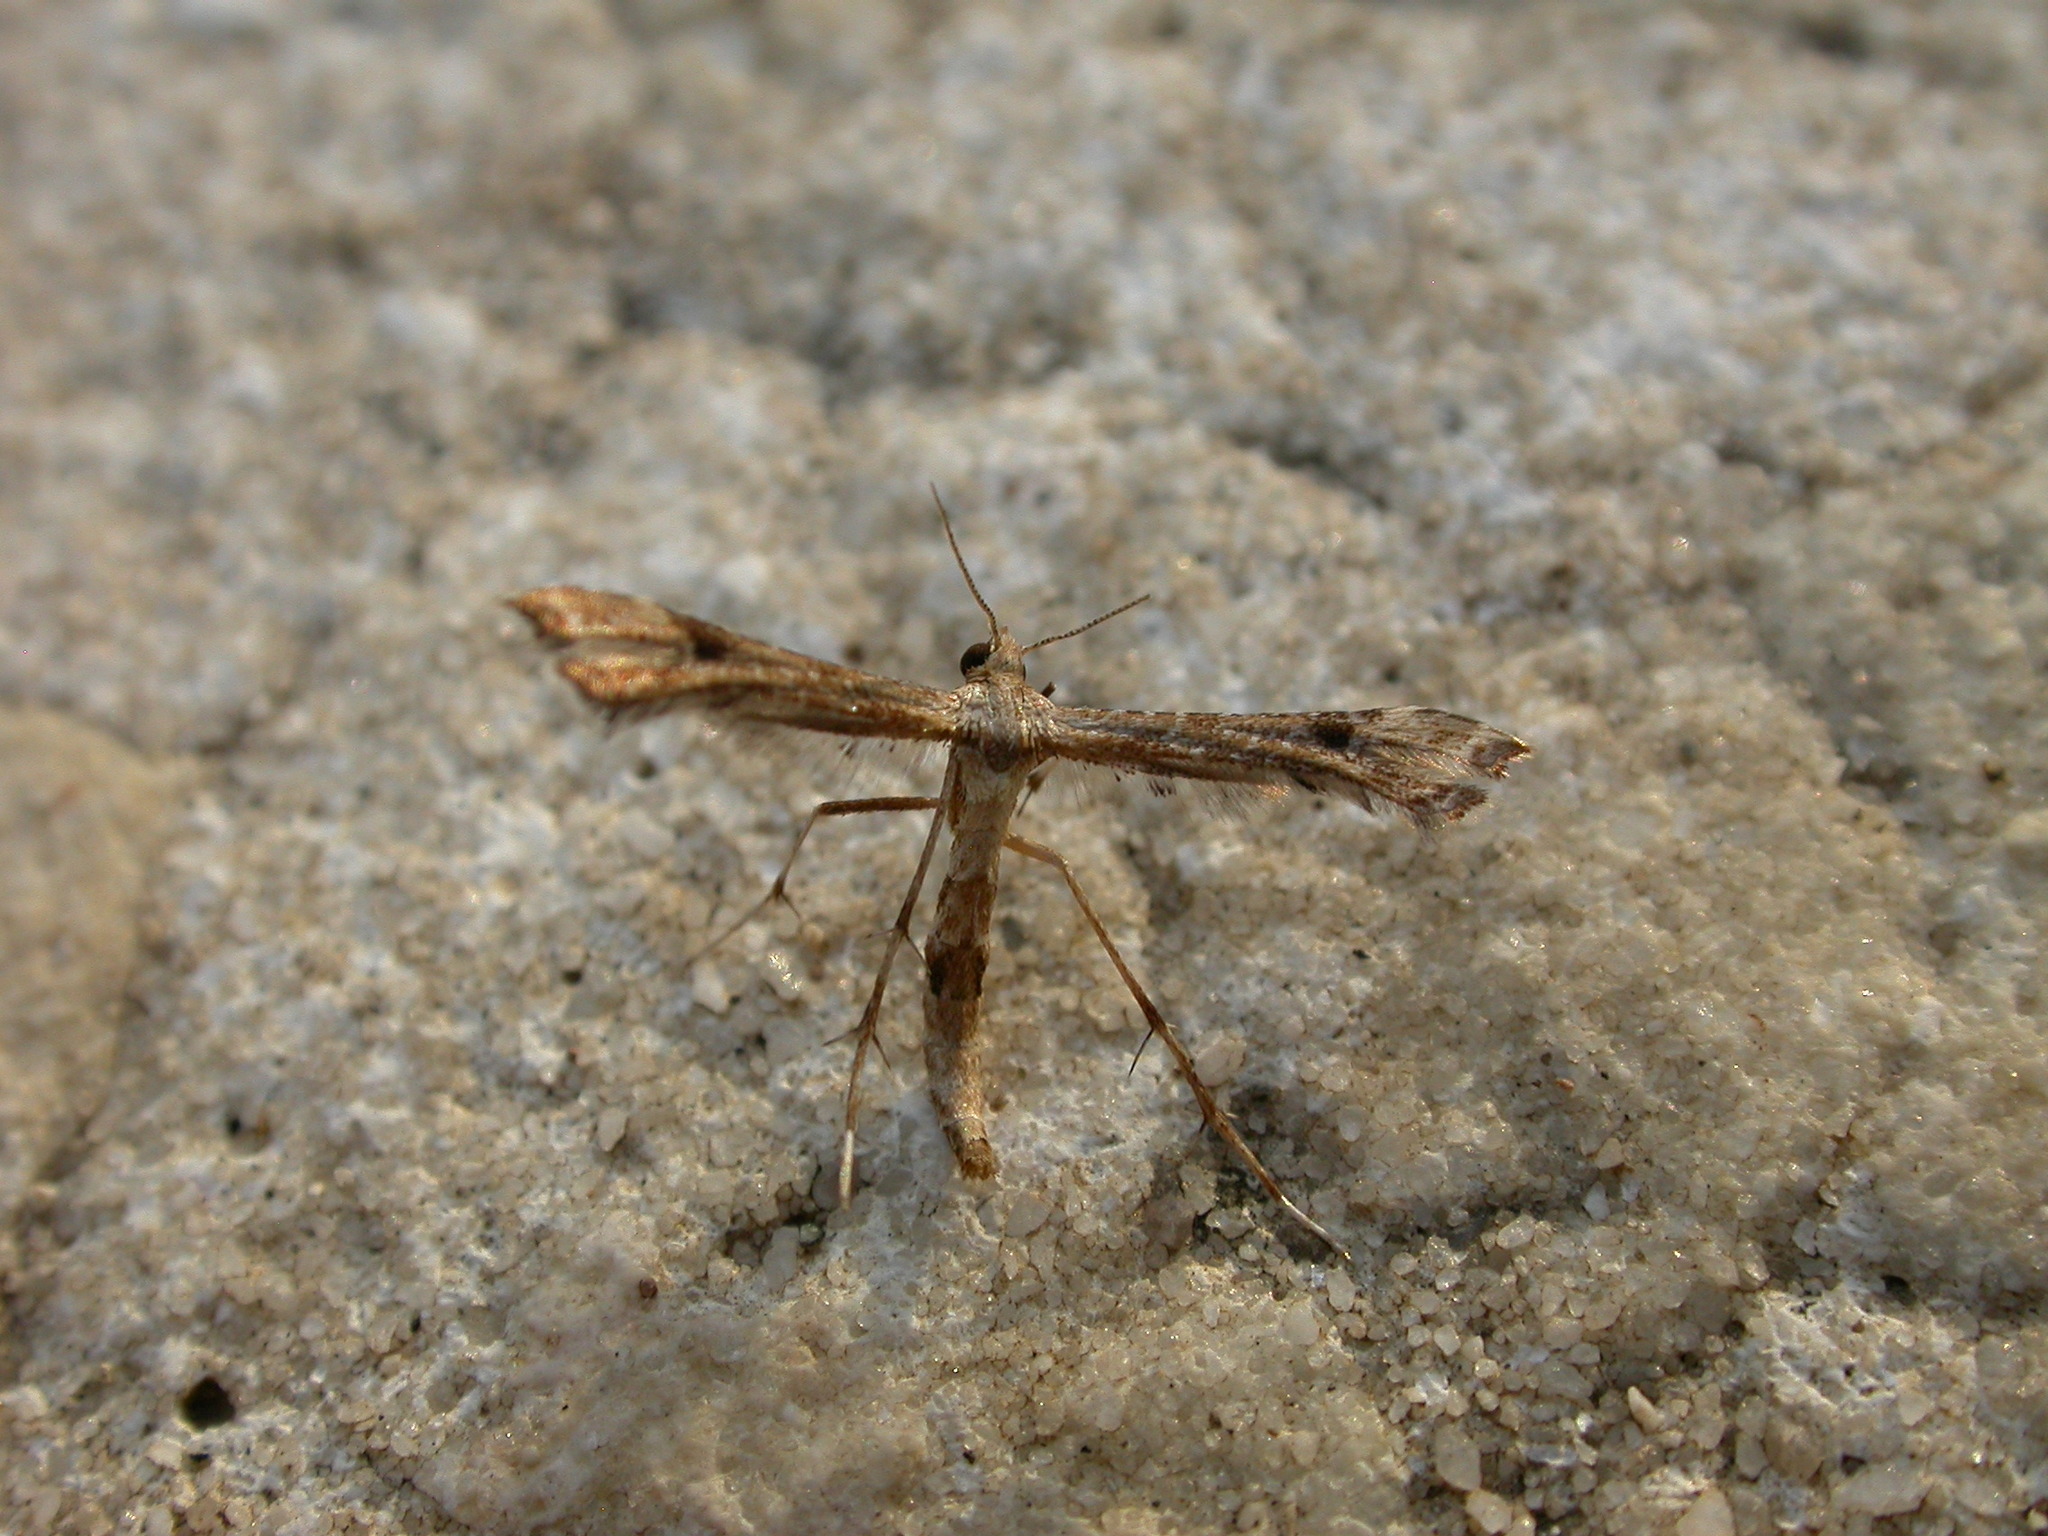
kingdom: Animalia
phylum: Arthropoda
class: Insecta
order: Lepidoptera
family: Pterophoridae
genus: Lantanophaga
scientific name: Lantanophaga pusillidactylus
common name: Moth
